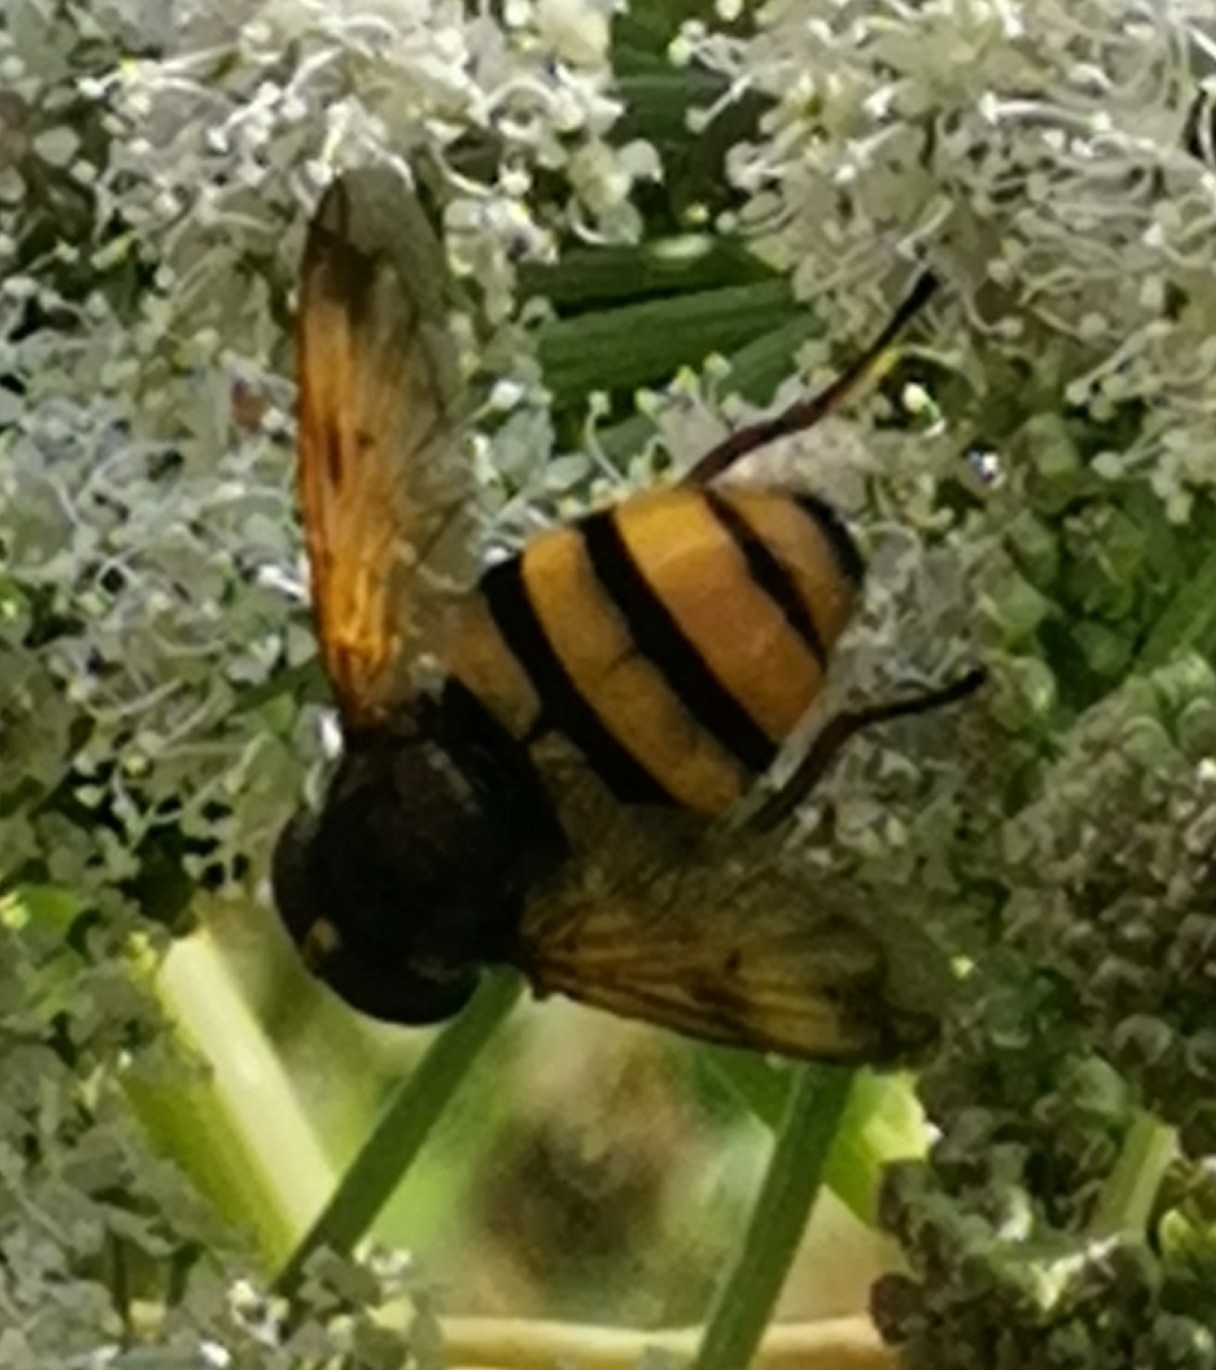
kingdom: Animalia
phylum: Arthropoda
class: Insecta
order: Diptera
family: Syrphidae
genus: Volucella
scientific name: Volucella inanis
